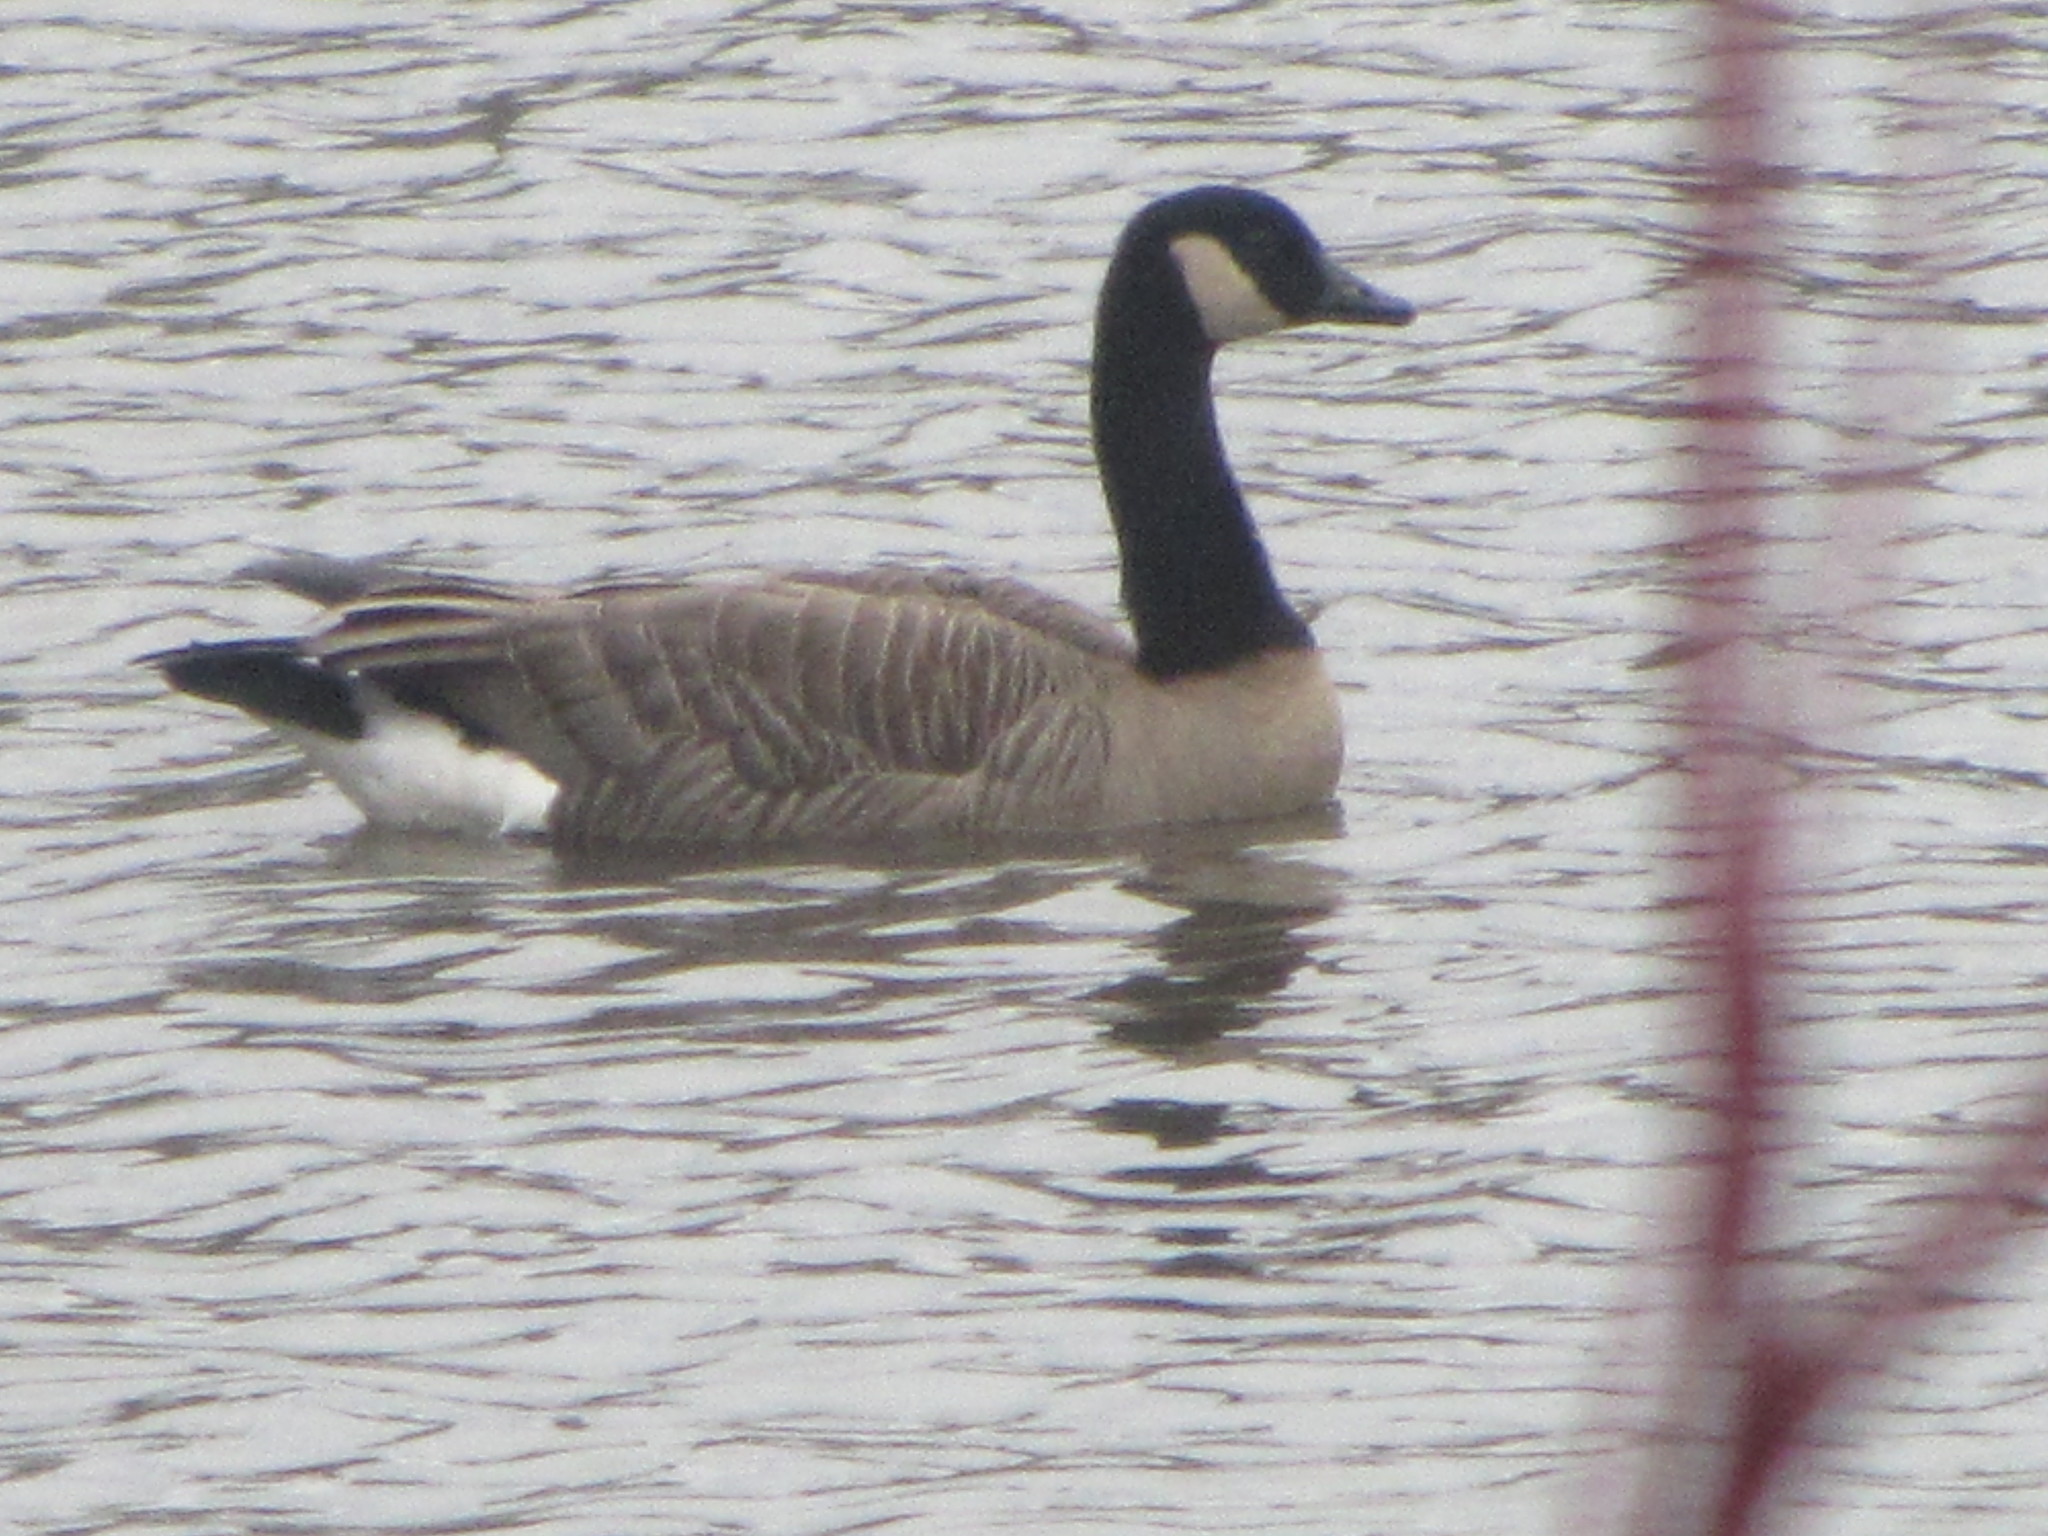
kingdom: Animalia
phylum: Chordata
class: Aves
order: Anseriformes
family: Anatidae
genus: Branta
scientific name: Branta canadensis
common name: Canada goose
